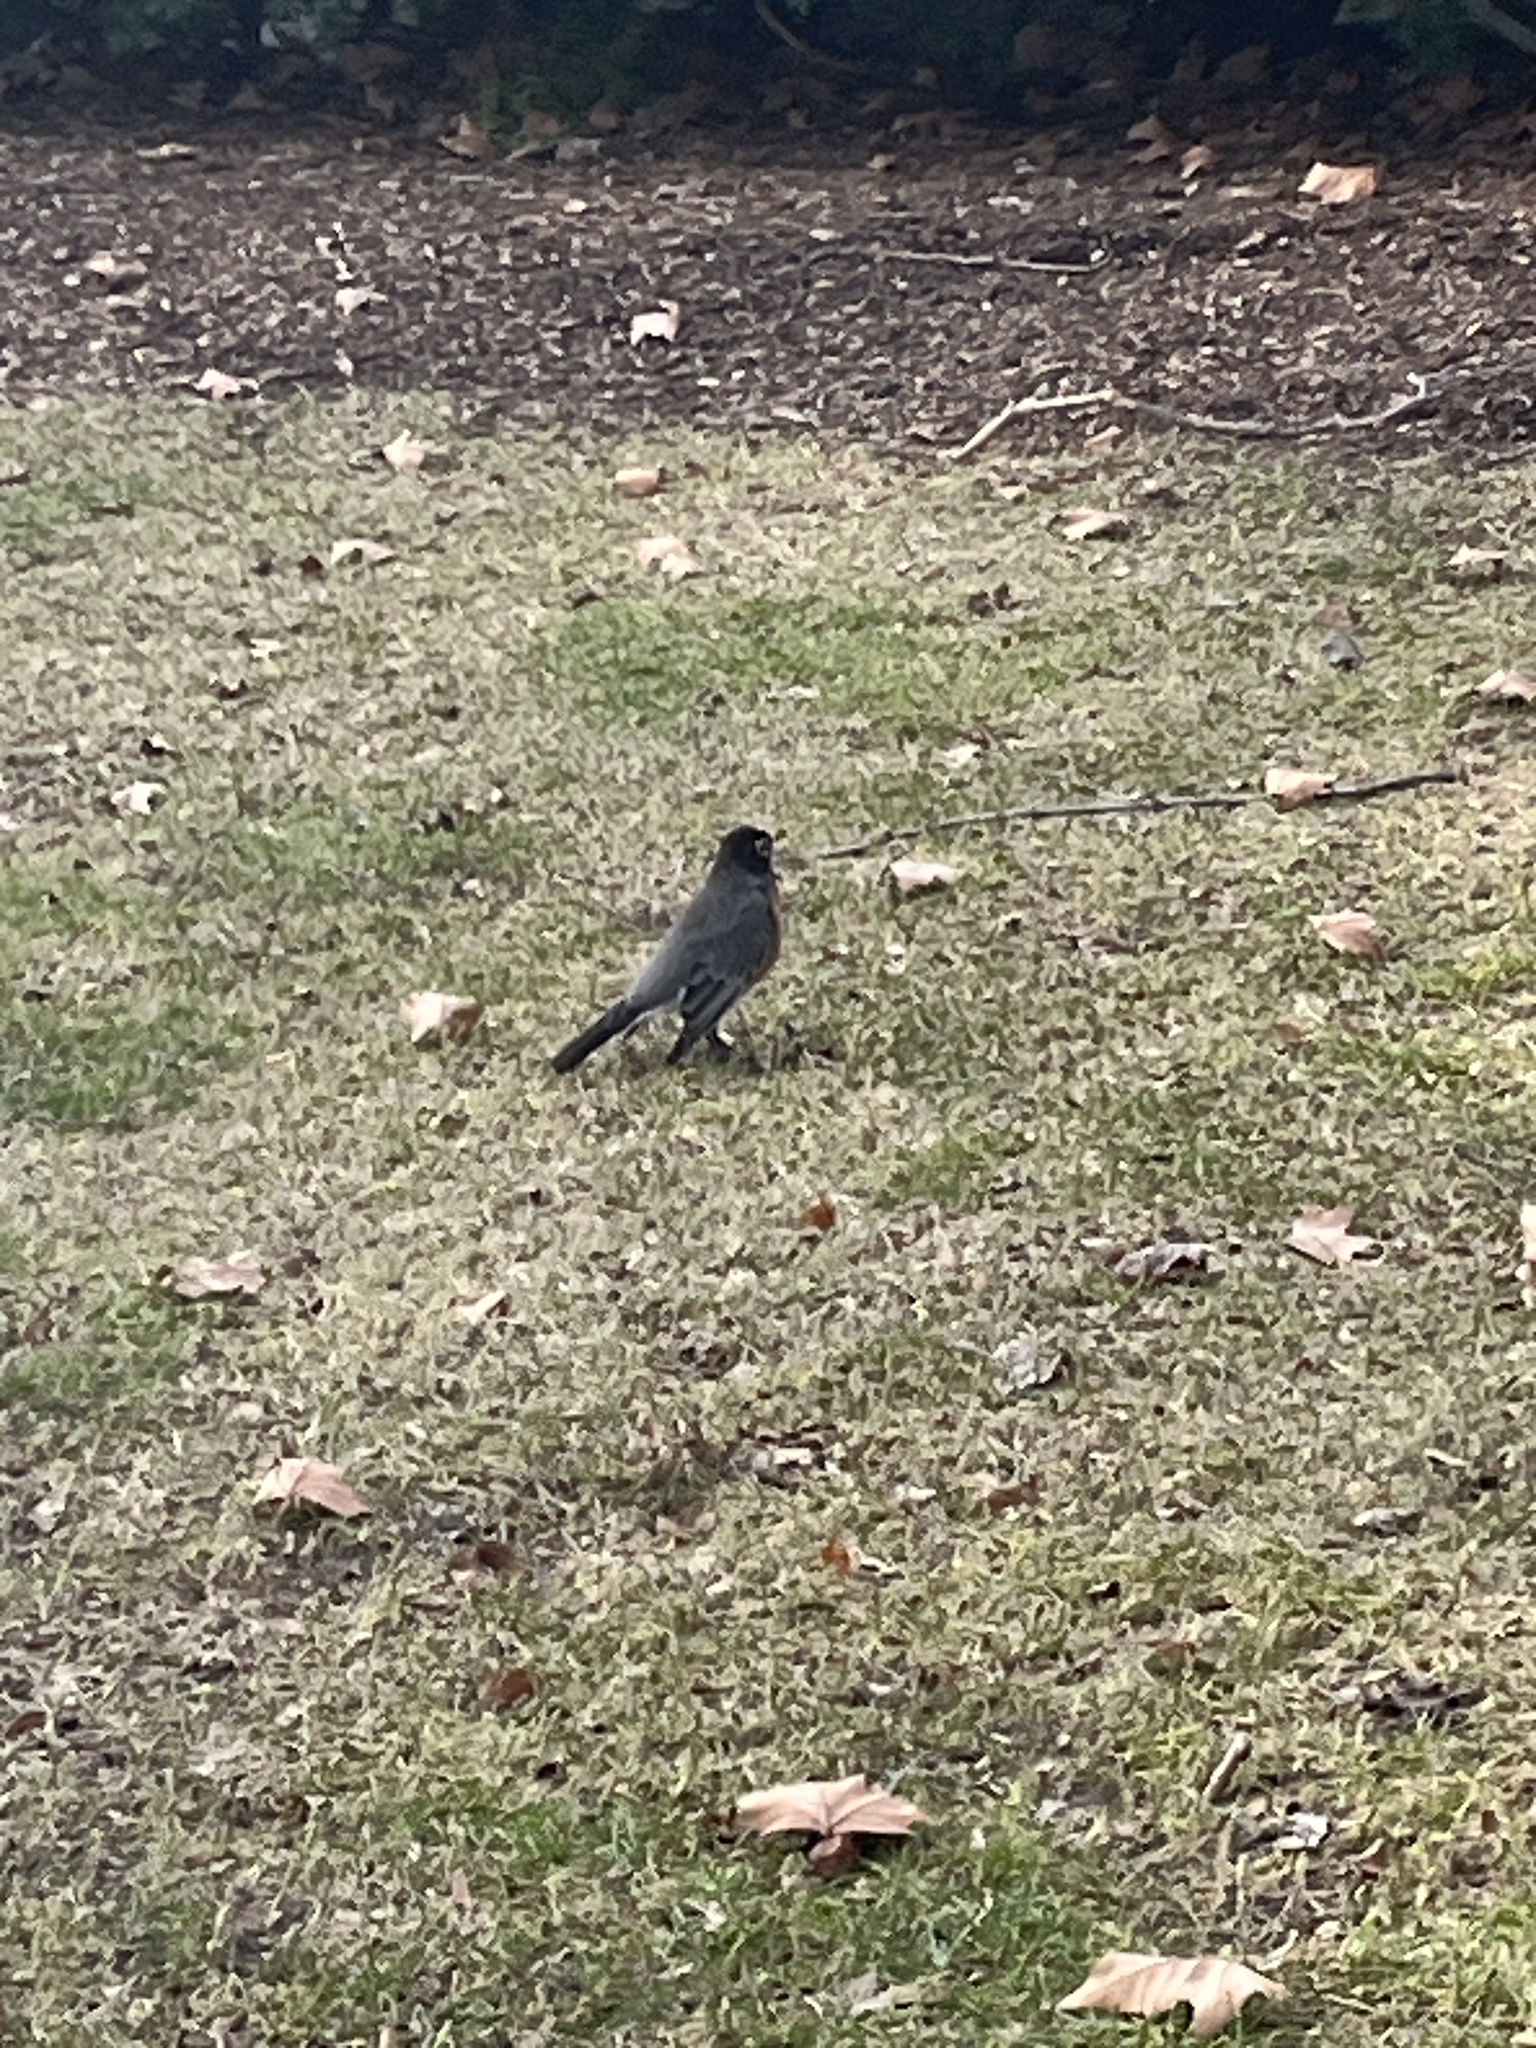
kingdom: Animalia
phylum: Chordata
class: Aves
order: Passeriformes
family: Turdidae
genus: Turdus
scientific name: Turdus migratorius
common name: American robin
